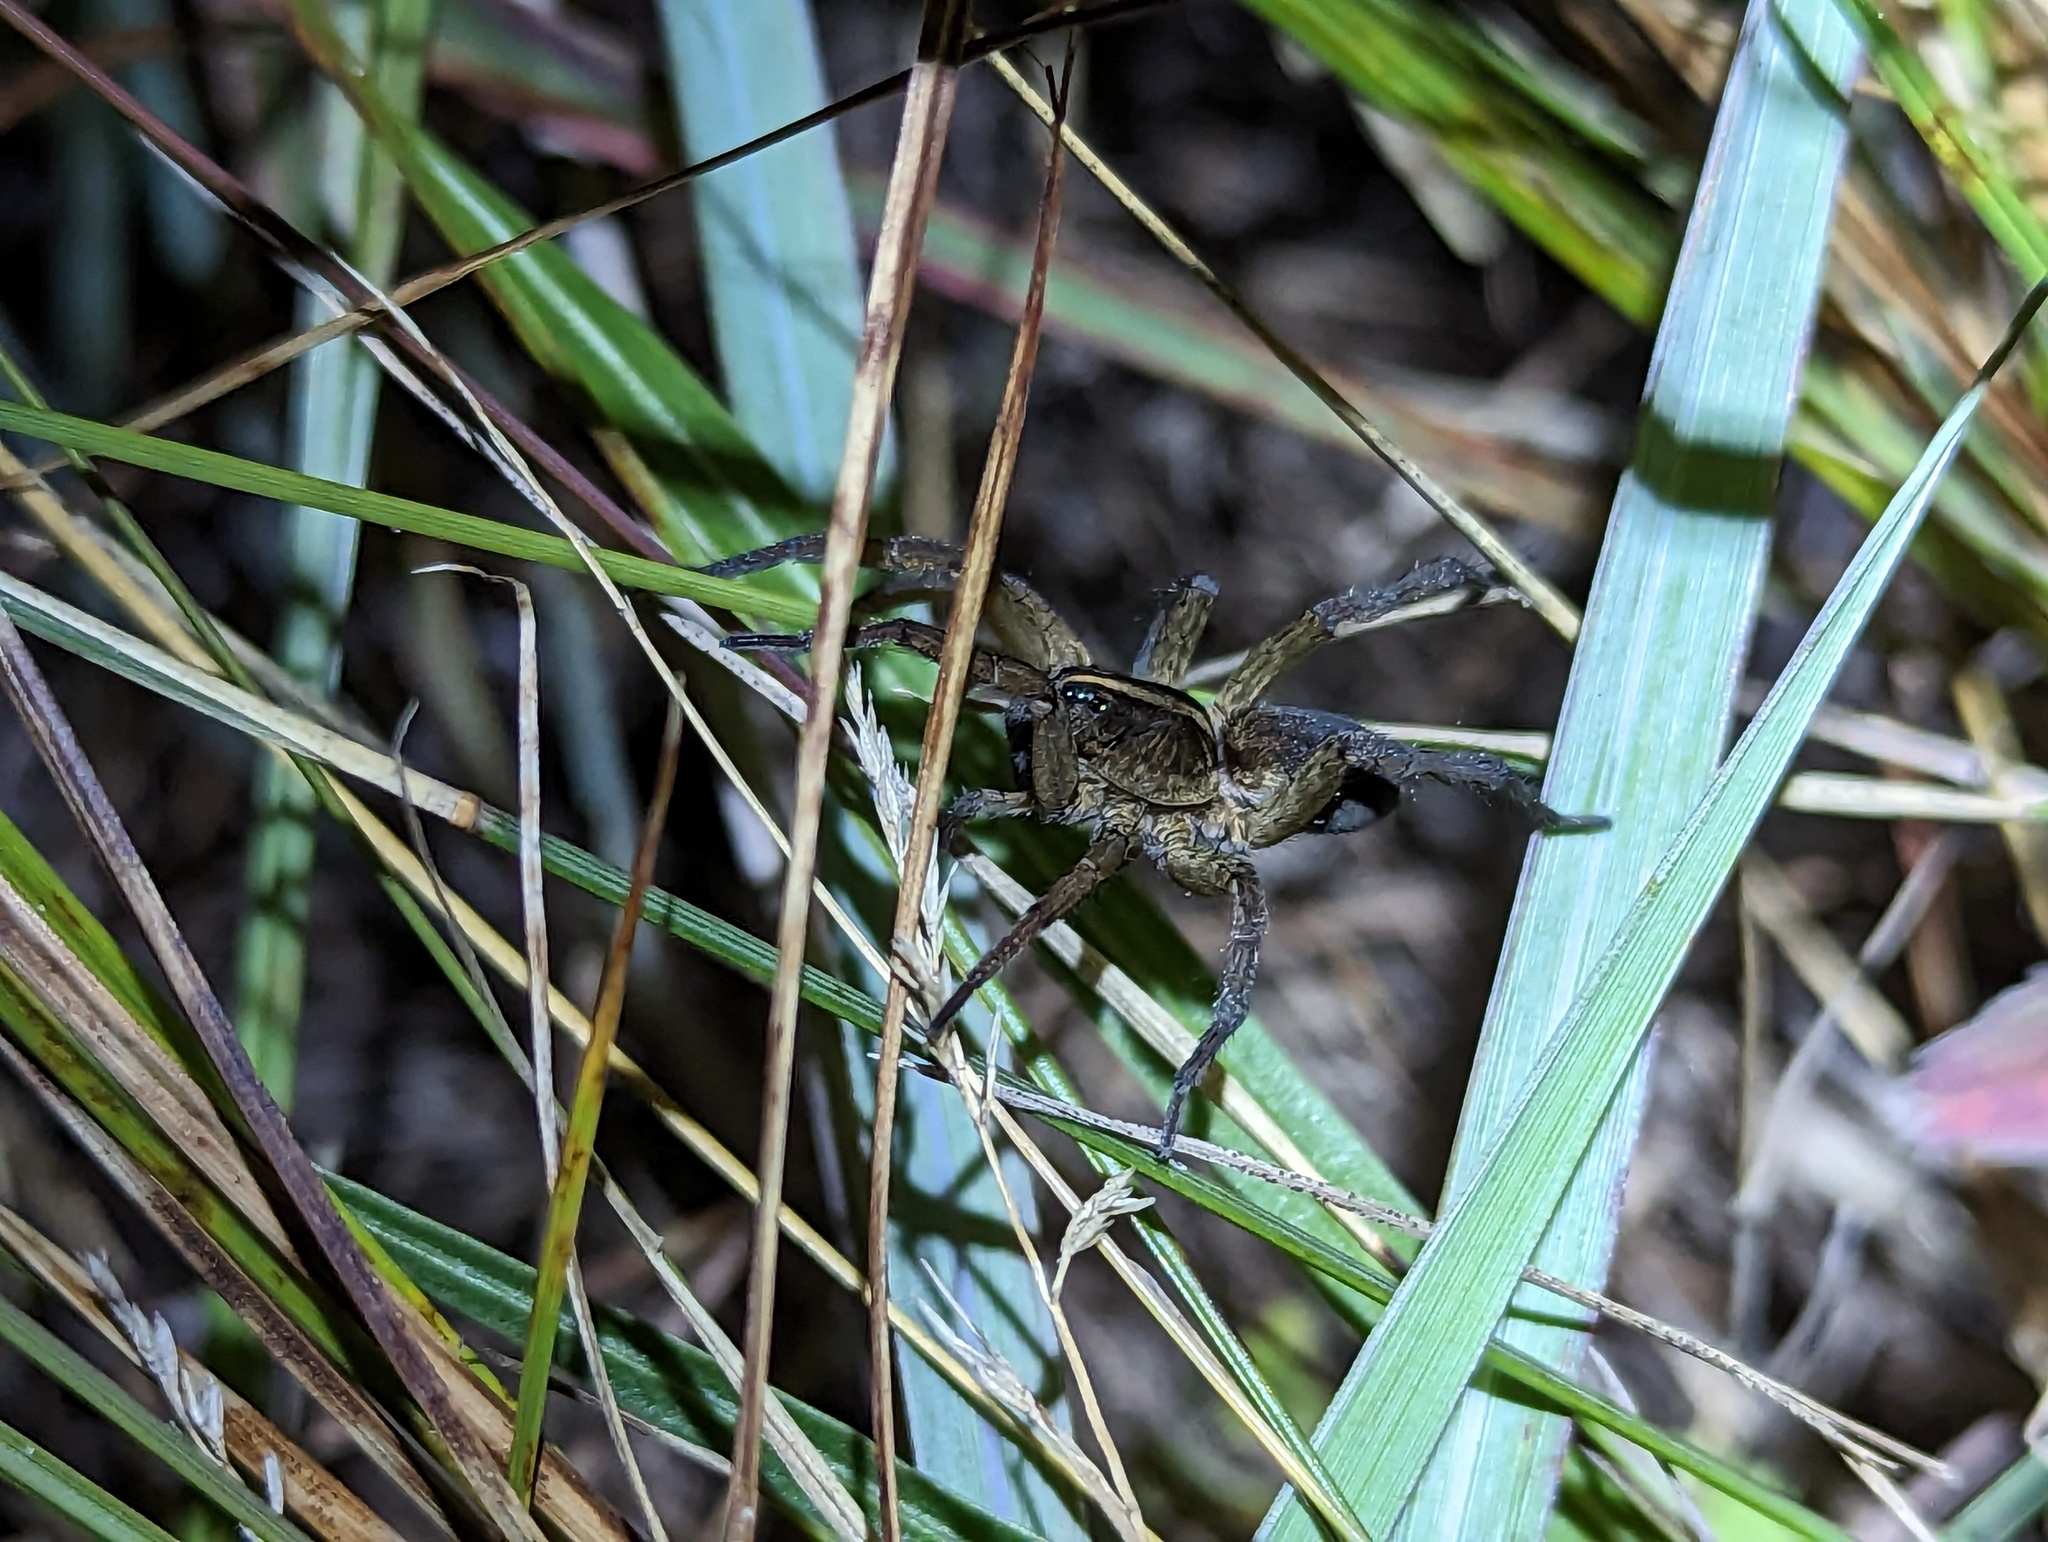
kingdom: Animalia
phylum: Arthropoda
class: Arachnida
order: Araneae
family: Lycosidae
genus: Tigrosa
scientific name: Tigrosa helluo
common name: Wetland giant wolf spider
